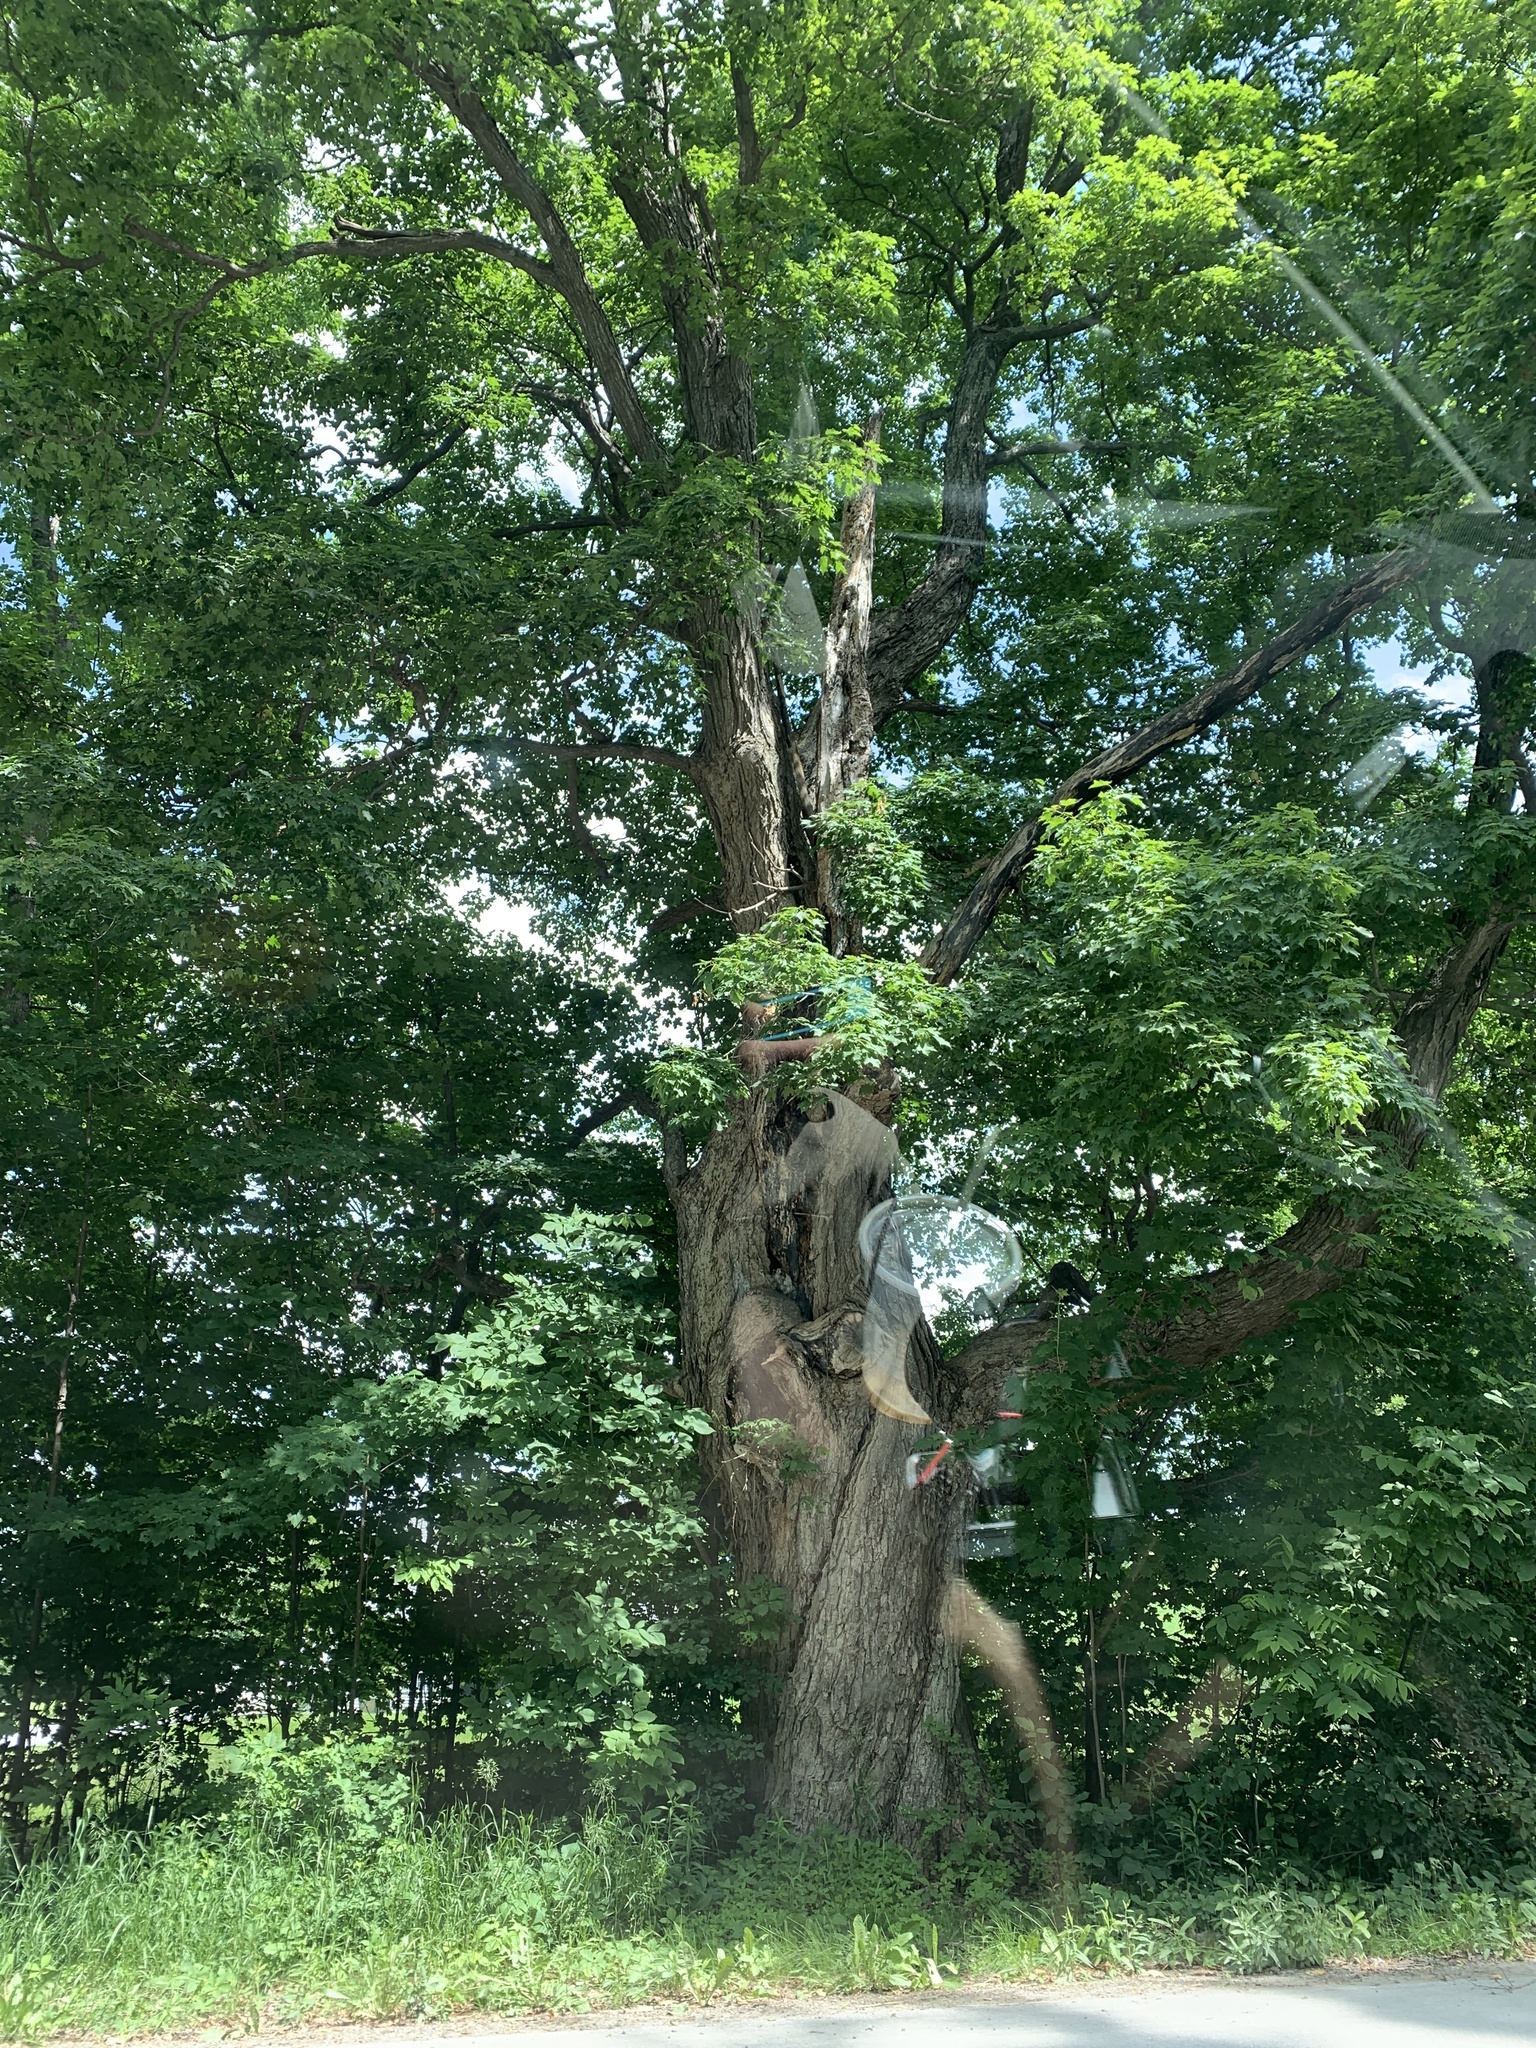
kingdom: Plantae
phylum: Tracheophyta
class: Magnoliopsida
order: Sapindales
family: Sapindaceae
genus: Acer
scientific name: Acer saccharum
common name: Sugar maple
